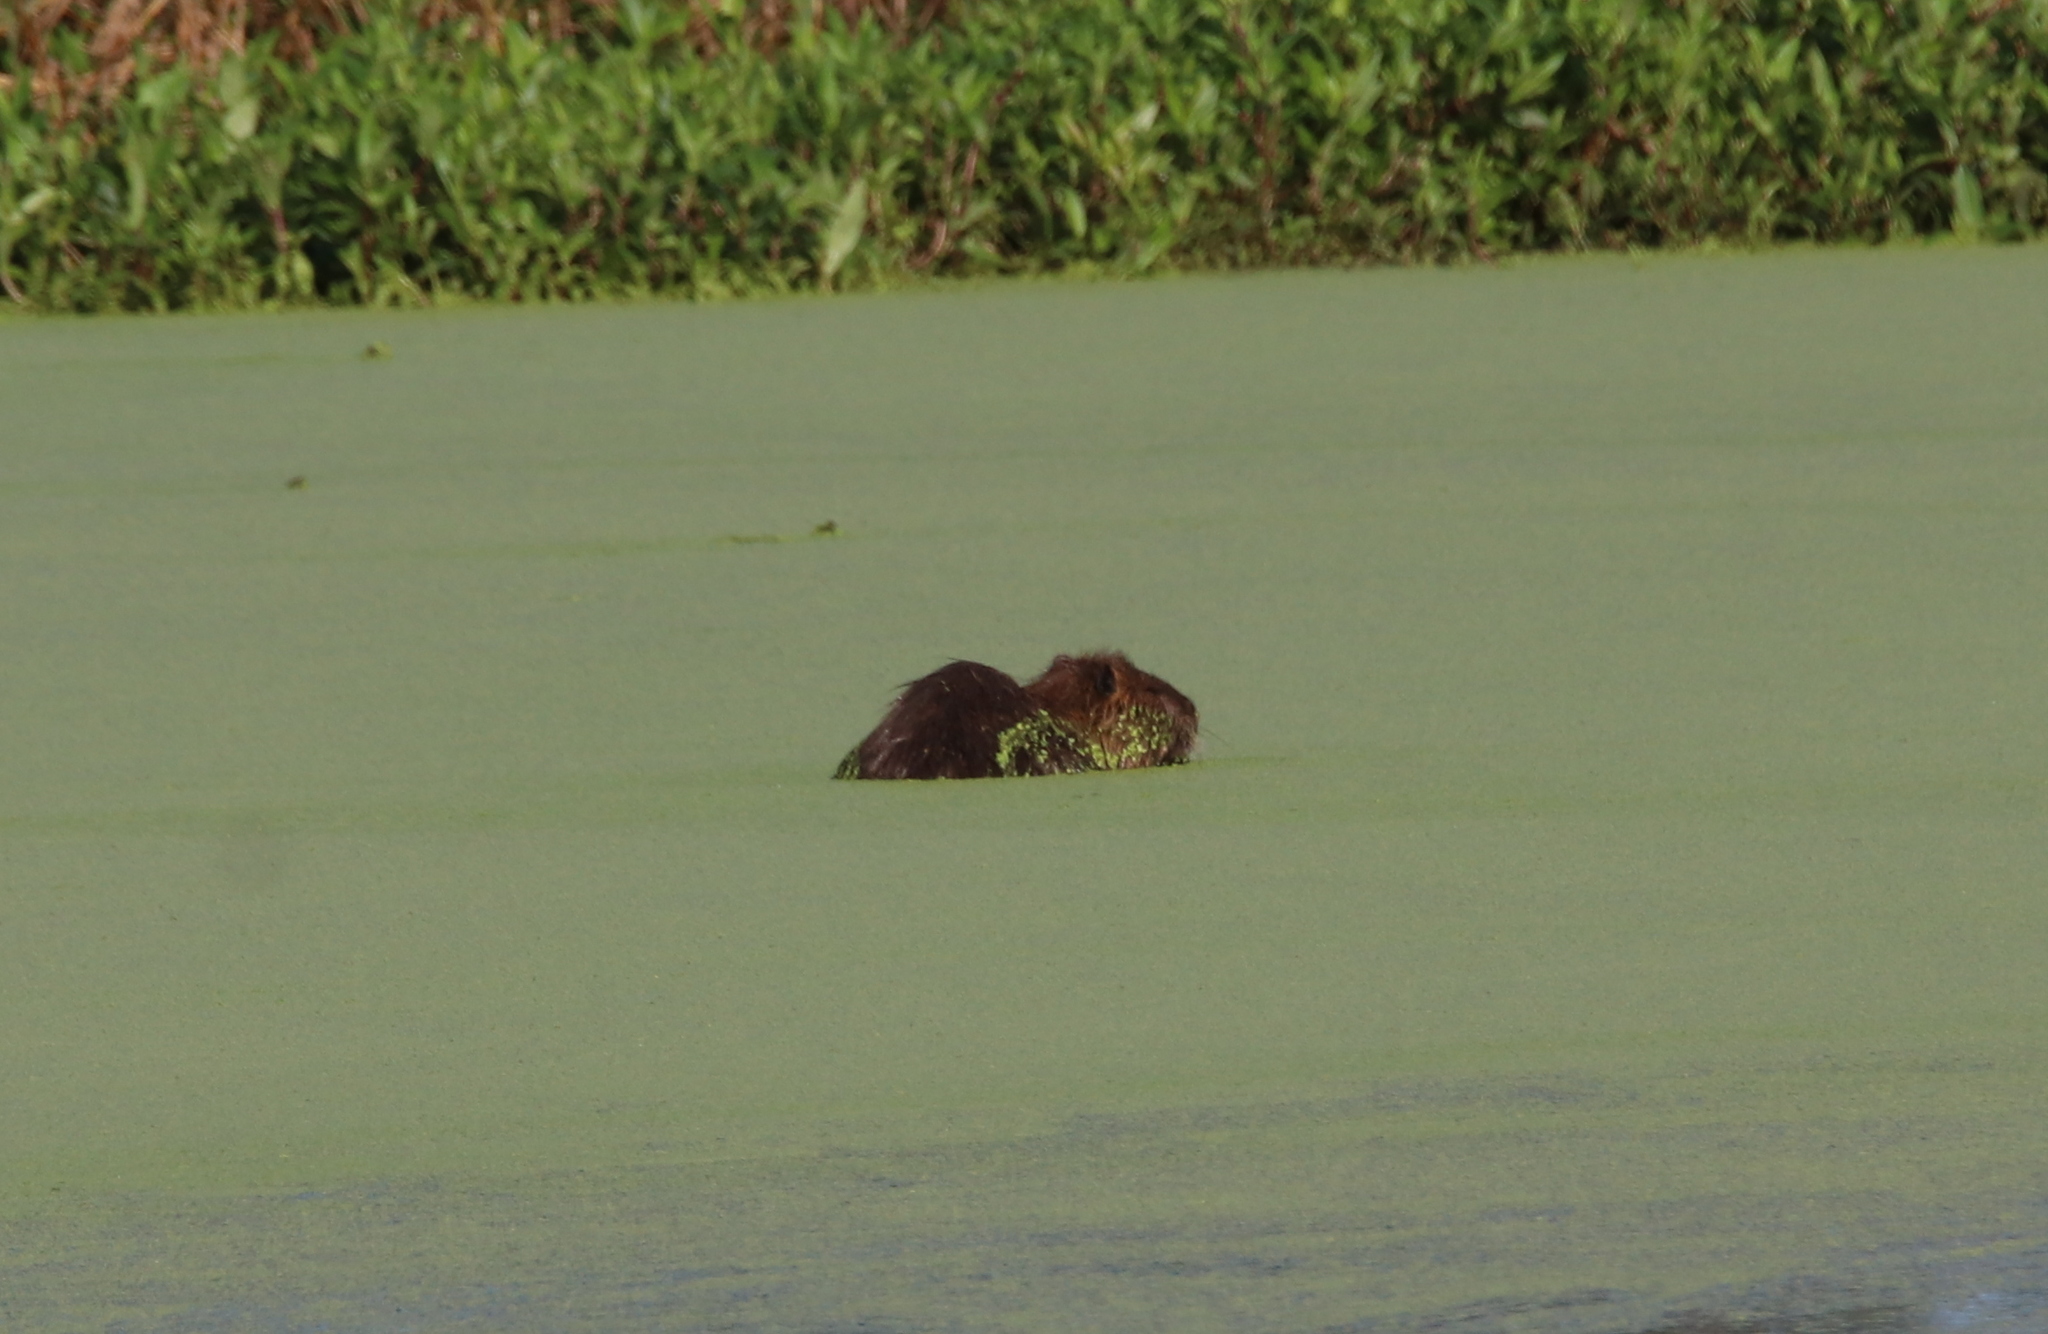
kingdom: Animalia
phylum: Chordata
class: Mammalia
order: Rodentia
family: Myocastoridae
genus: Myocastor
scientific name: Myocastor coypus
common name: Coypu
